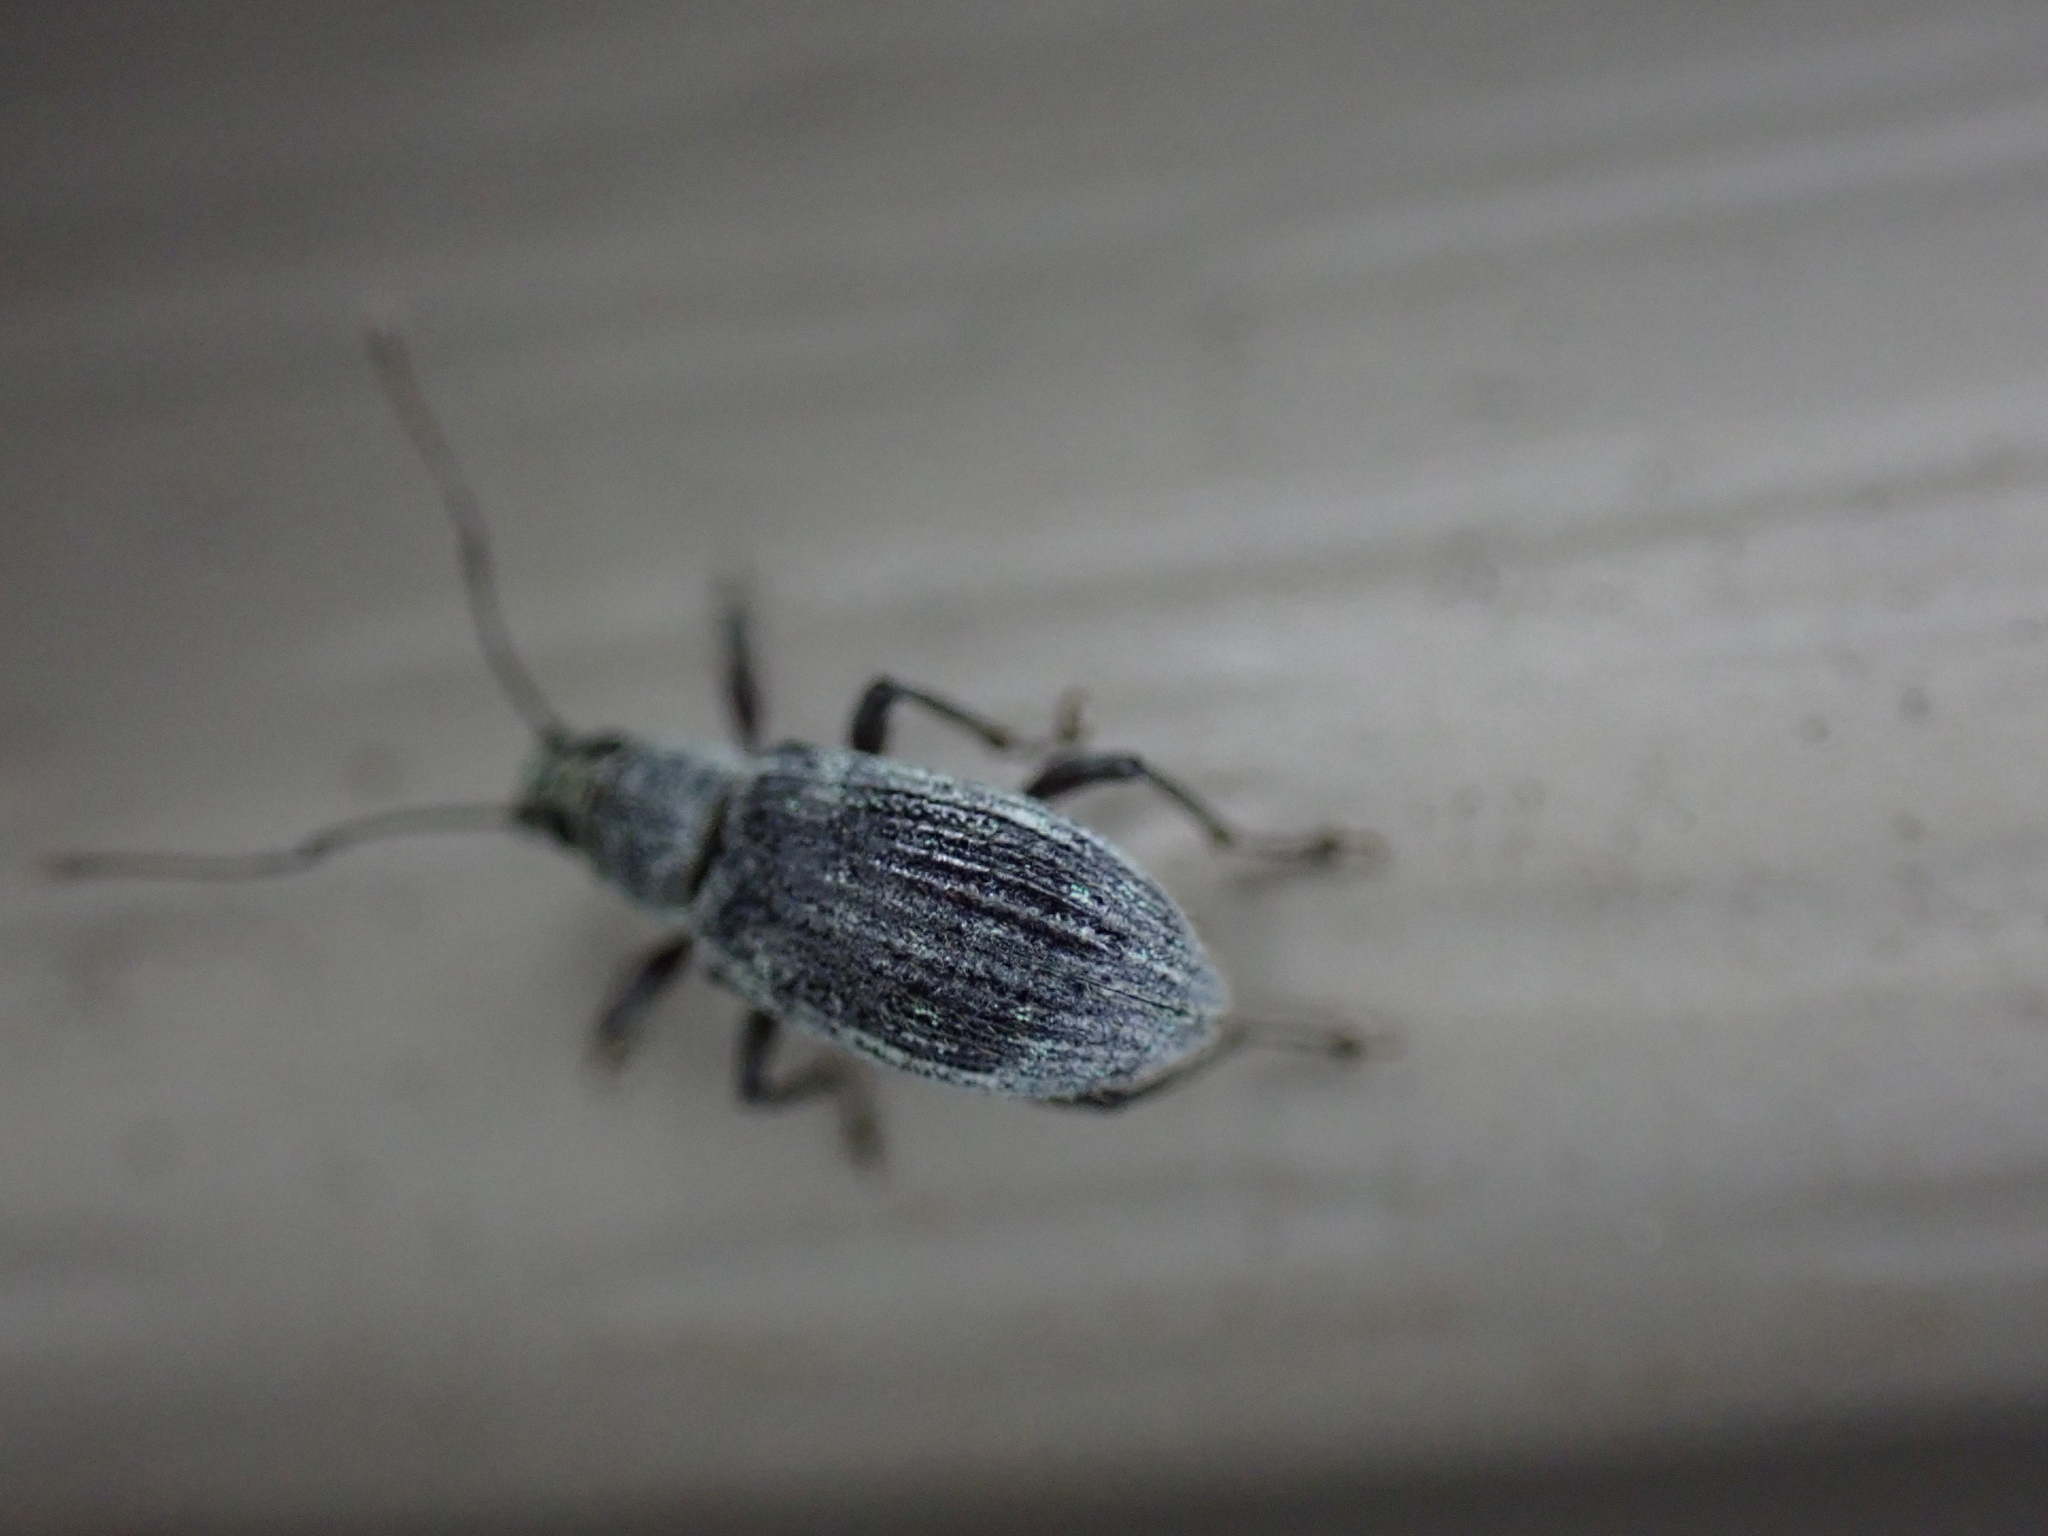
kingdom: Animalia
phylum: Arthropoda
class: Insecta
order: Coleoptera
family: Curculionidae
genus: Cyrtepistomus
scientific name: Cyrtepistomus castaneus
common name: Weevil
